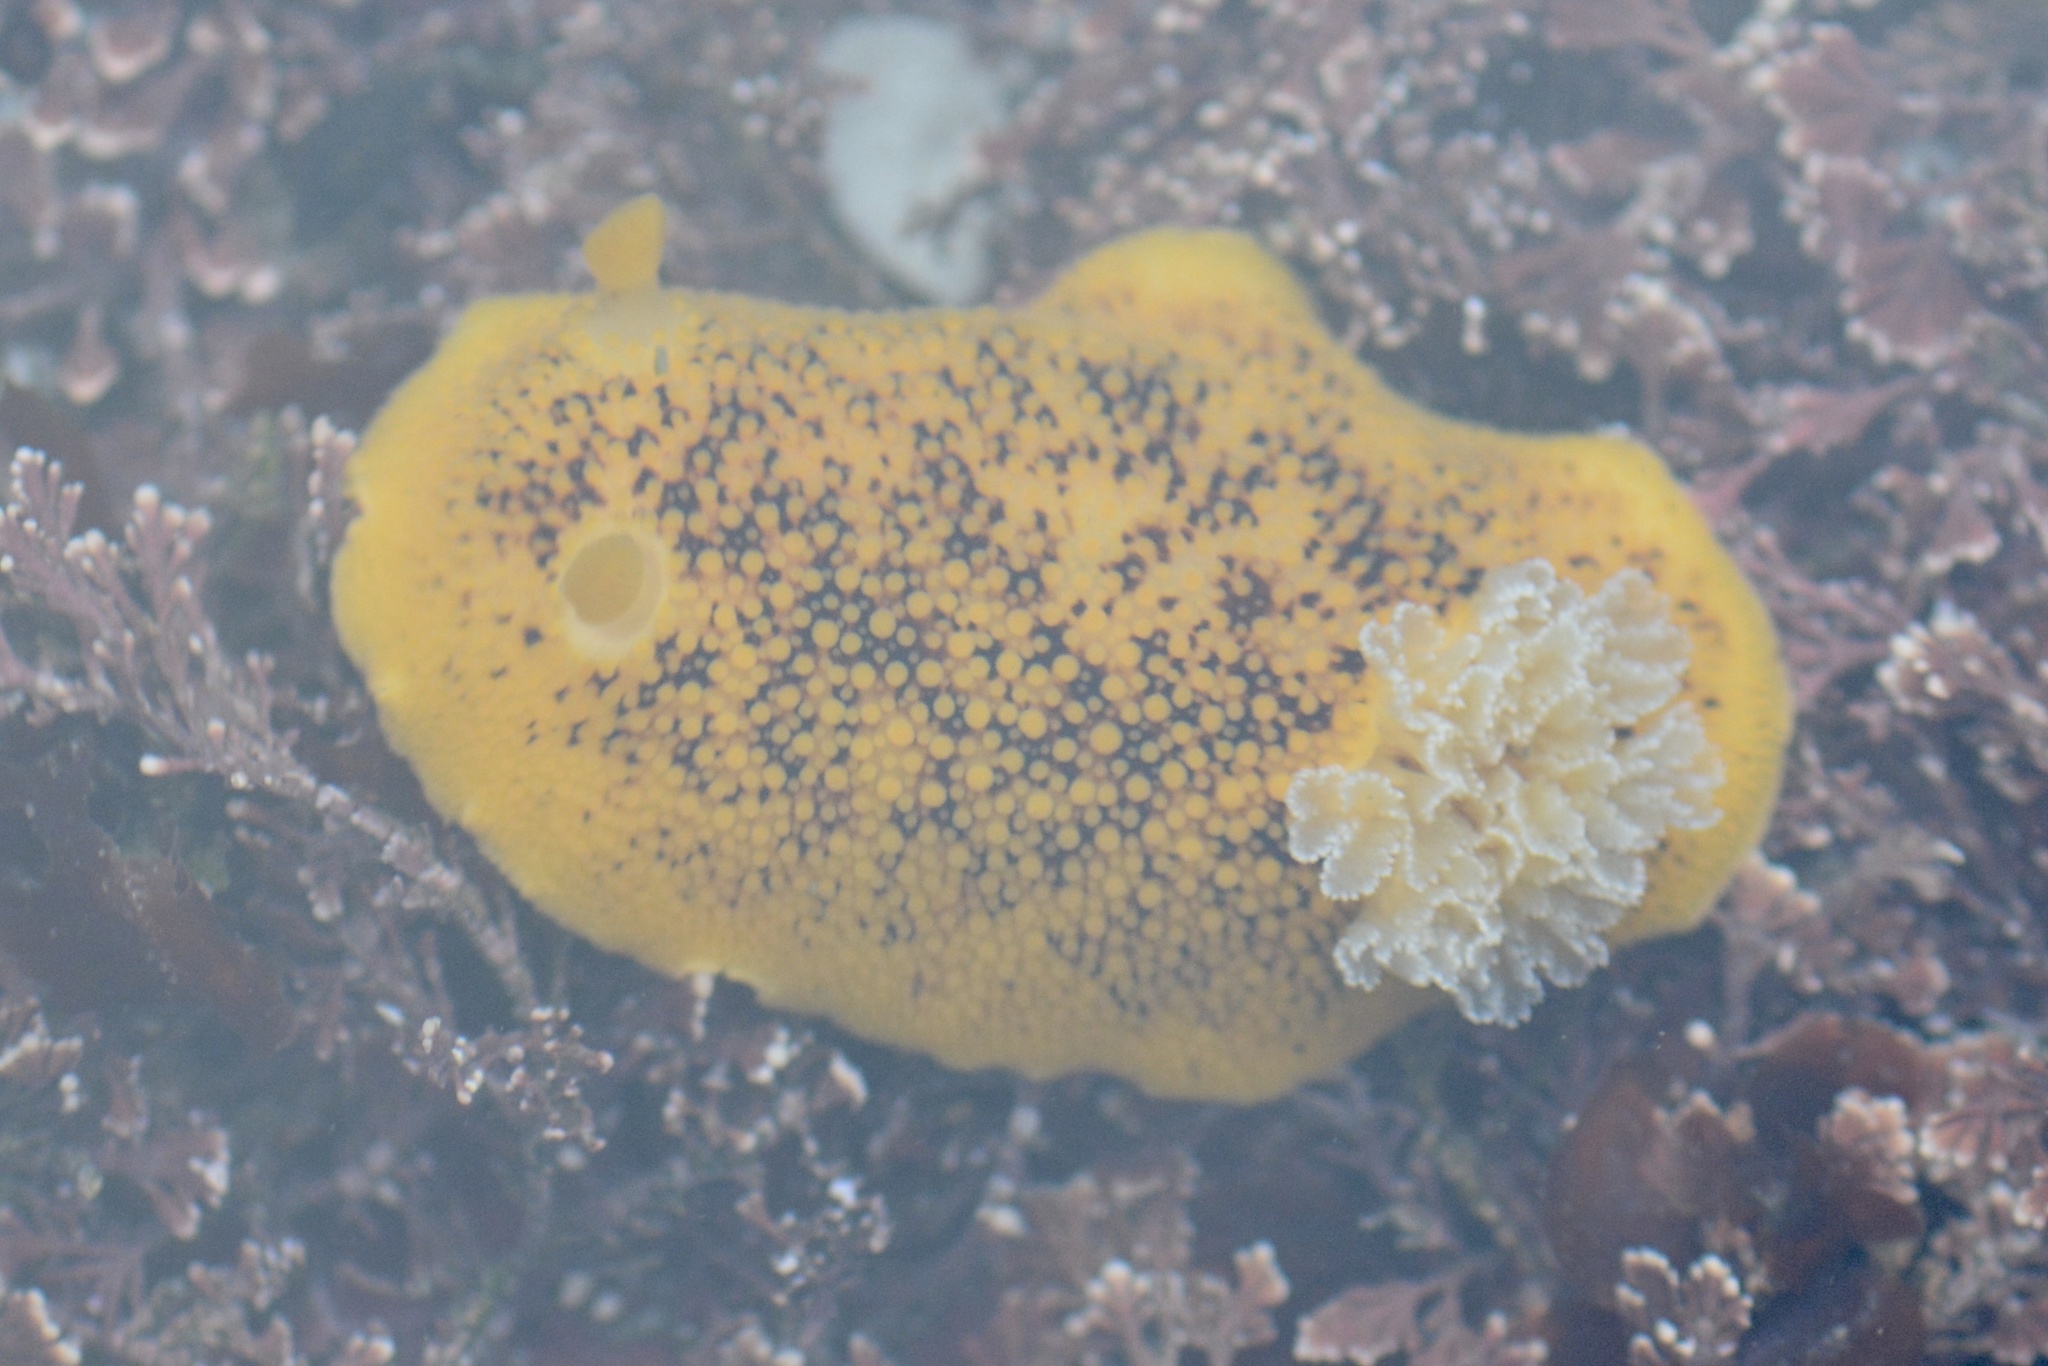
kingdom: Animalia
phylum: Mollusca
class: Gastropoda
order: Nudibranchia
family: Discodorididae
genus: Peltodoris
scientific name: Peltodoris nobilis
